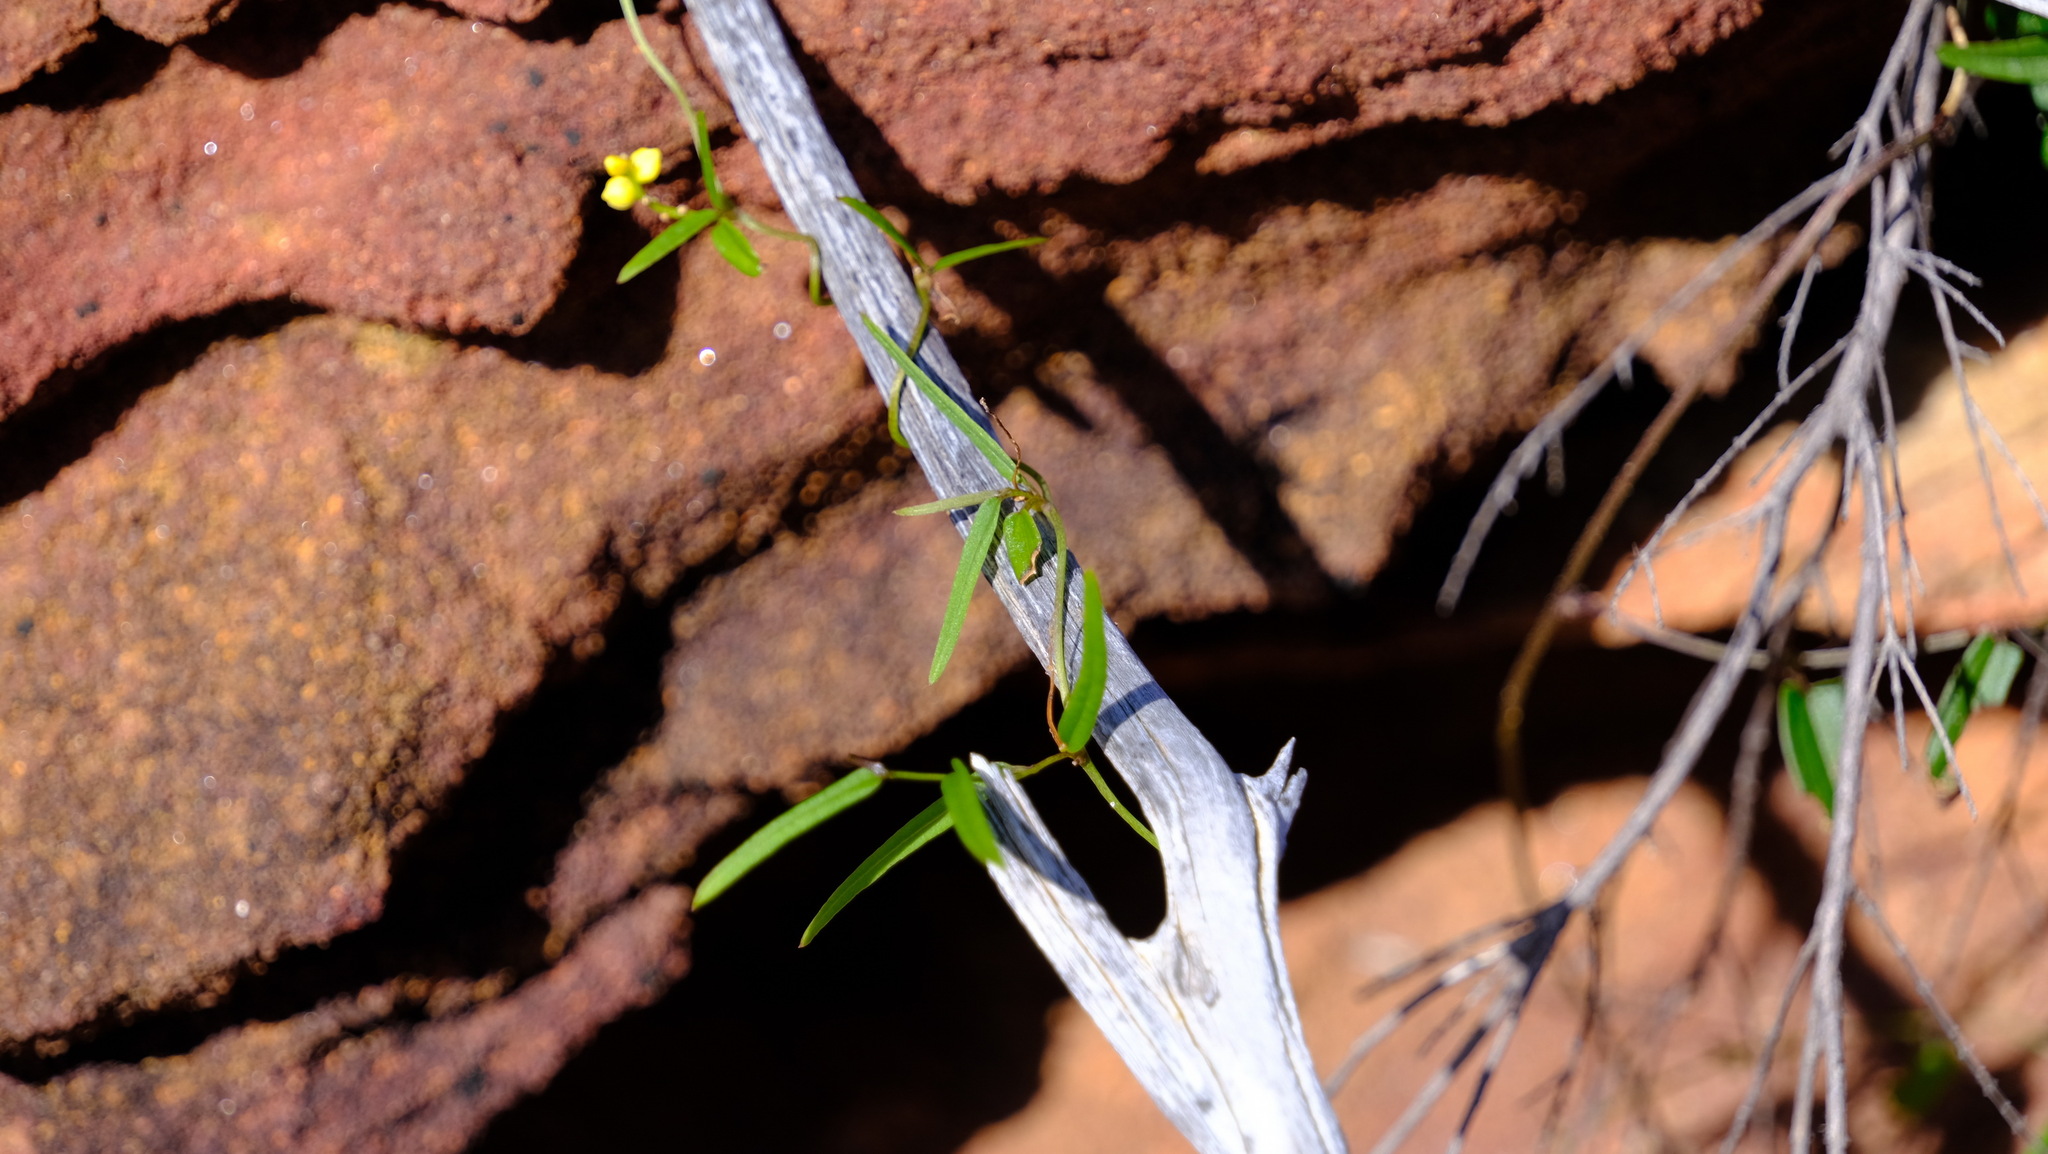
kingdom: Plantae
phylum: Tracheophyta
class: Liliopsida
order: Dioscoreales
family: Dioscoreaceae
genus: Dioscorea
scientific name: Dioscorea hastifolia
